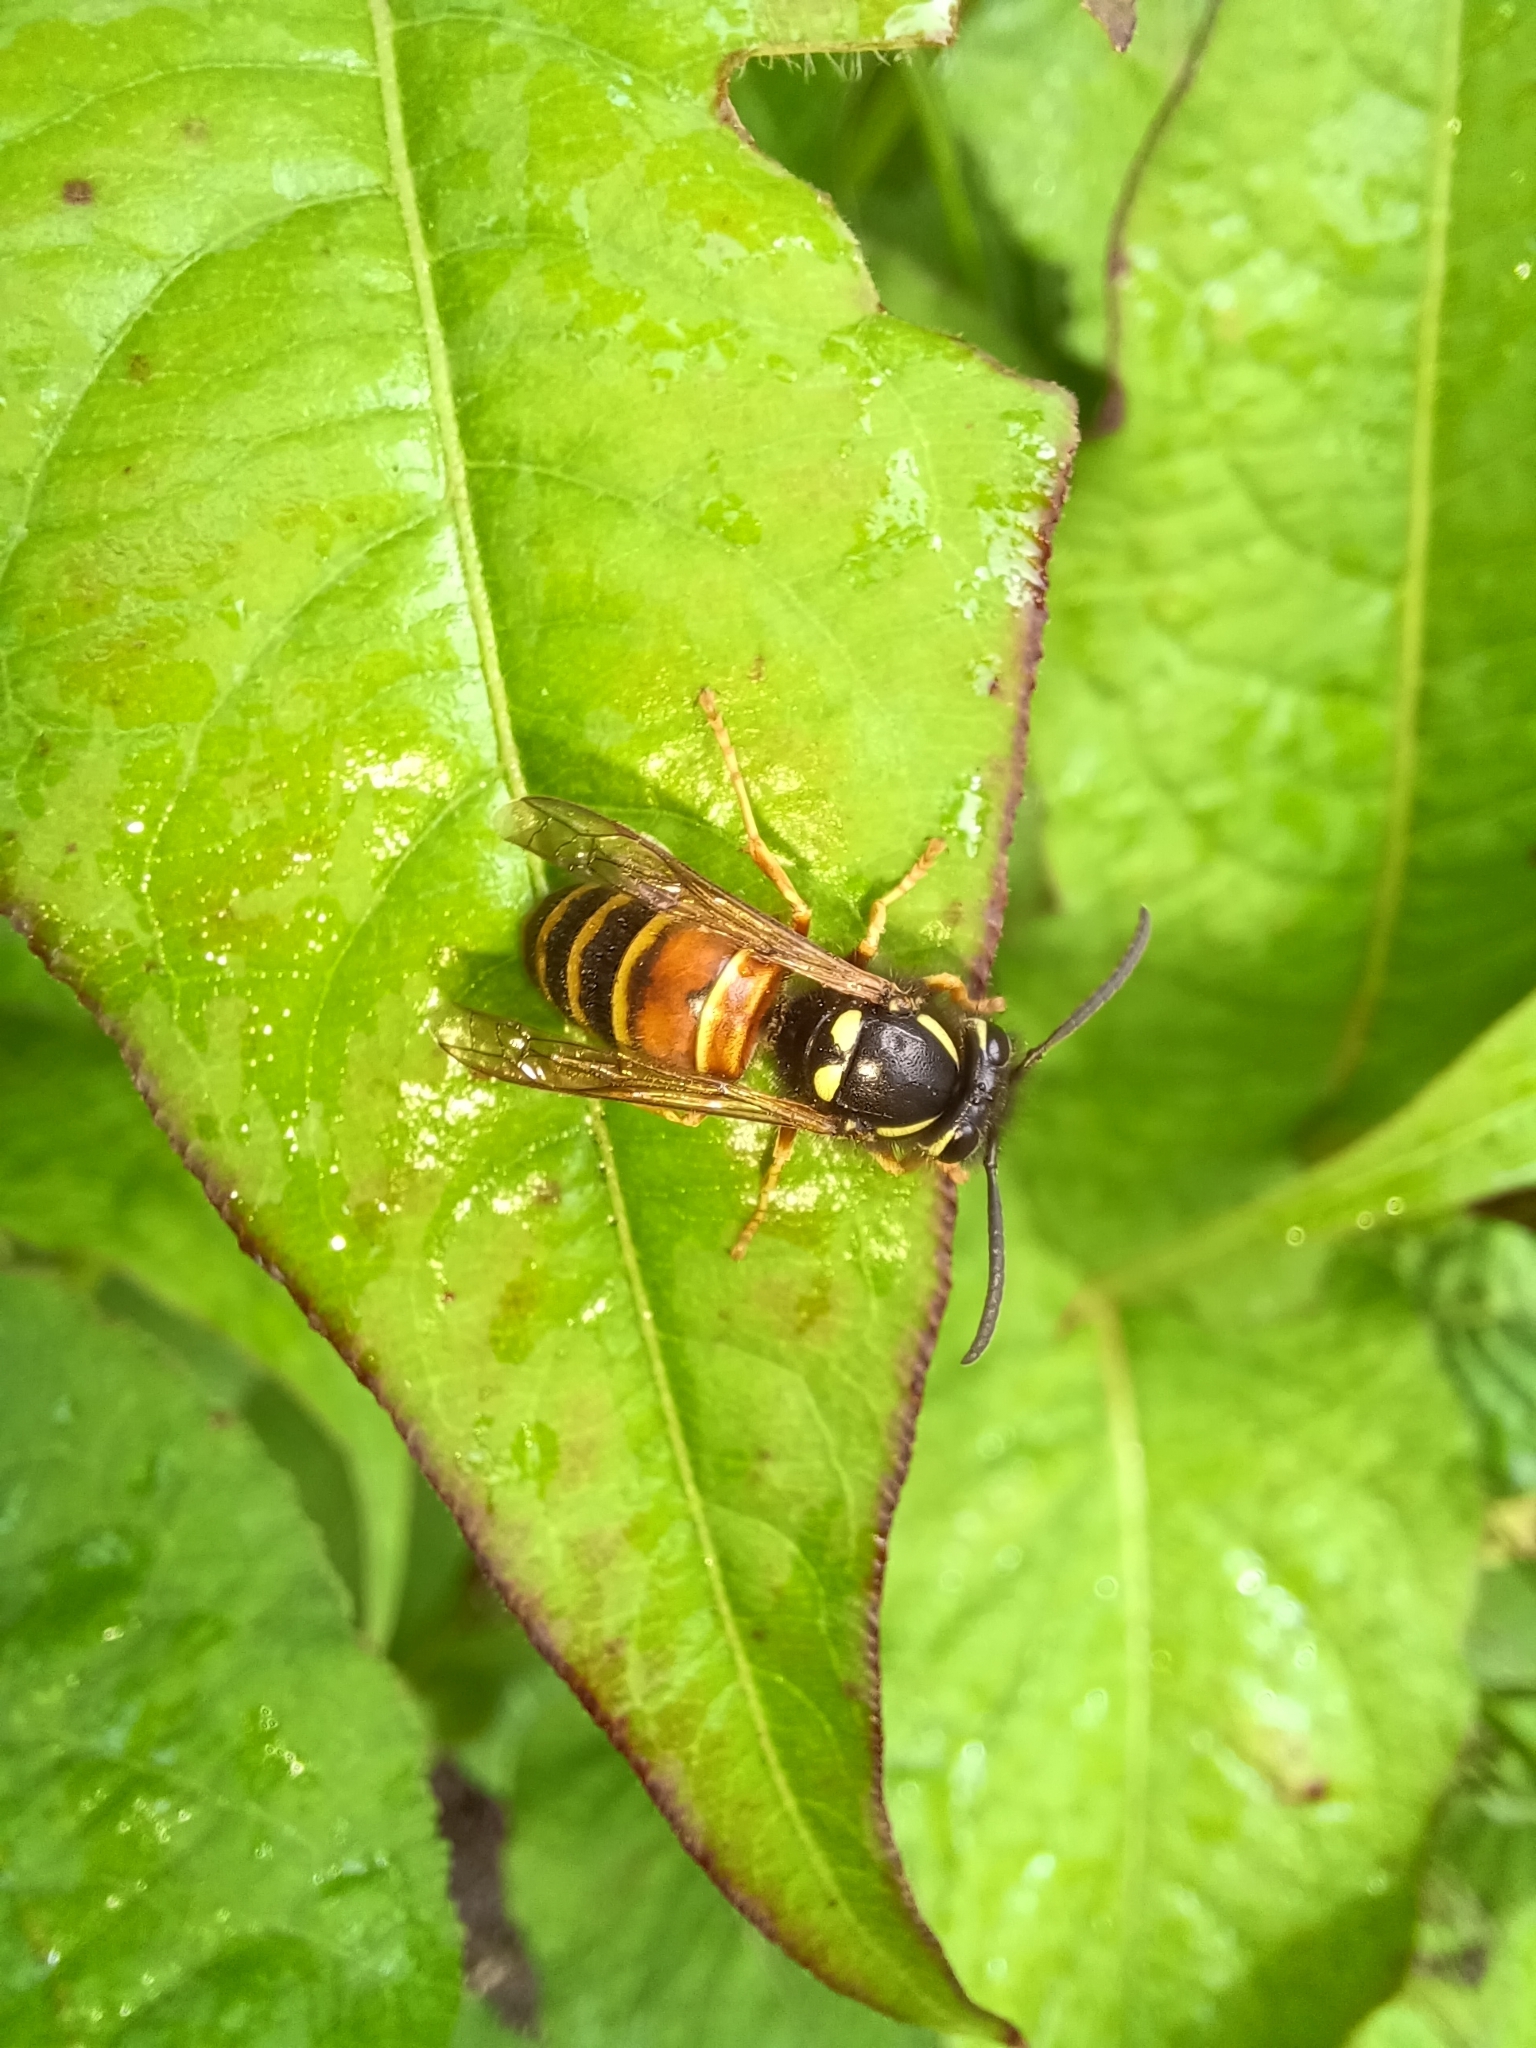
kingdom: Animalia
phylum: Arthropoda
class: Insecta
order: Hymenoptera
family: Vespidae
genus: Vespula
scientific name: Vespula rufa
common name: Red wasp
